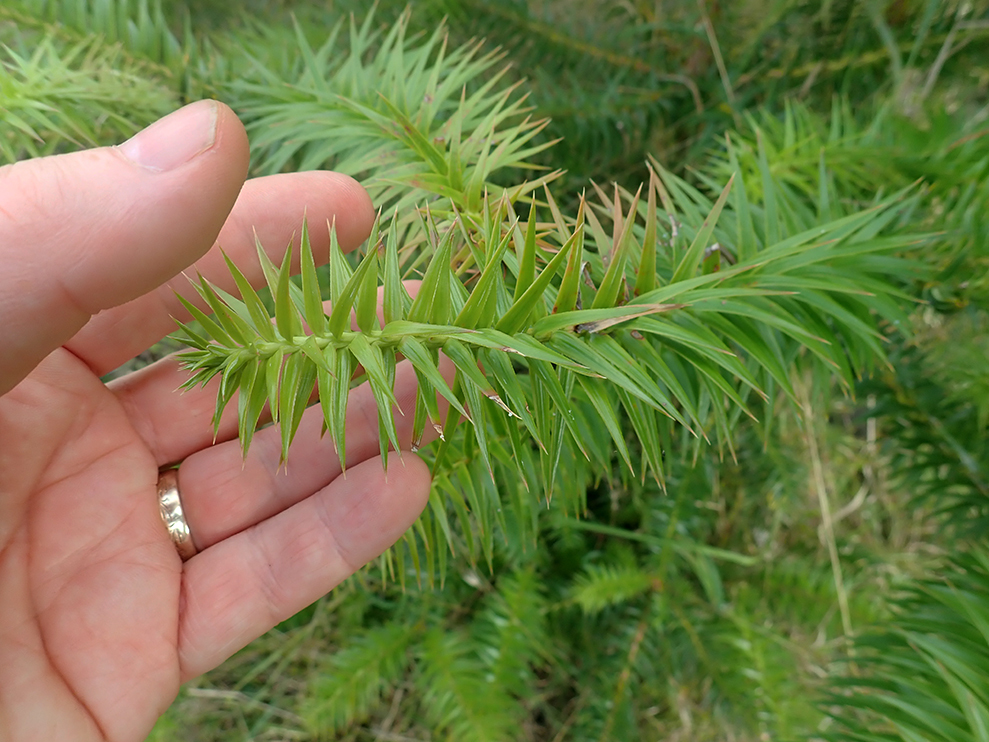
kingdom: Plantae
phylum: Tracheophyta
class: Pinopsida
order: Pinales
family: Cupressaceae
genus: Cunninghamia
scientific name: Cunninghamia lanceolata
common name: Chinese fir
